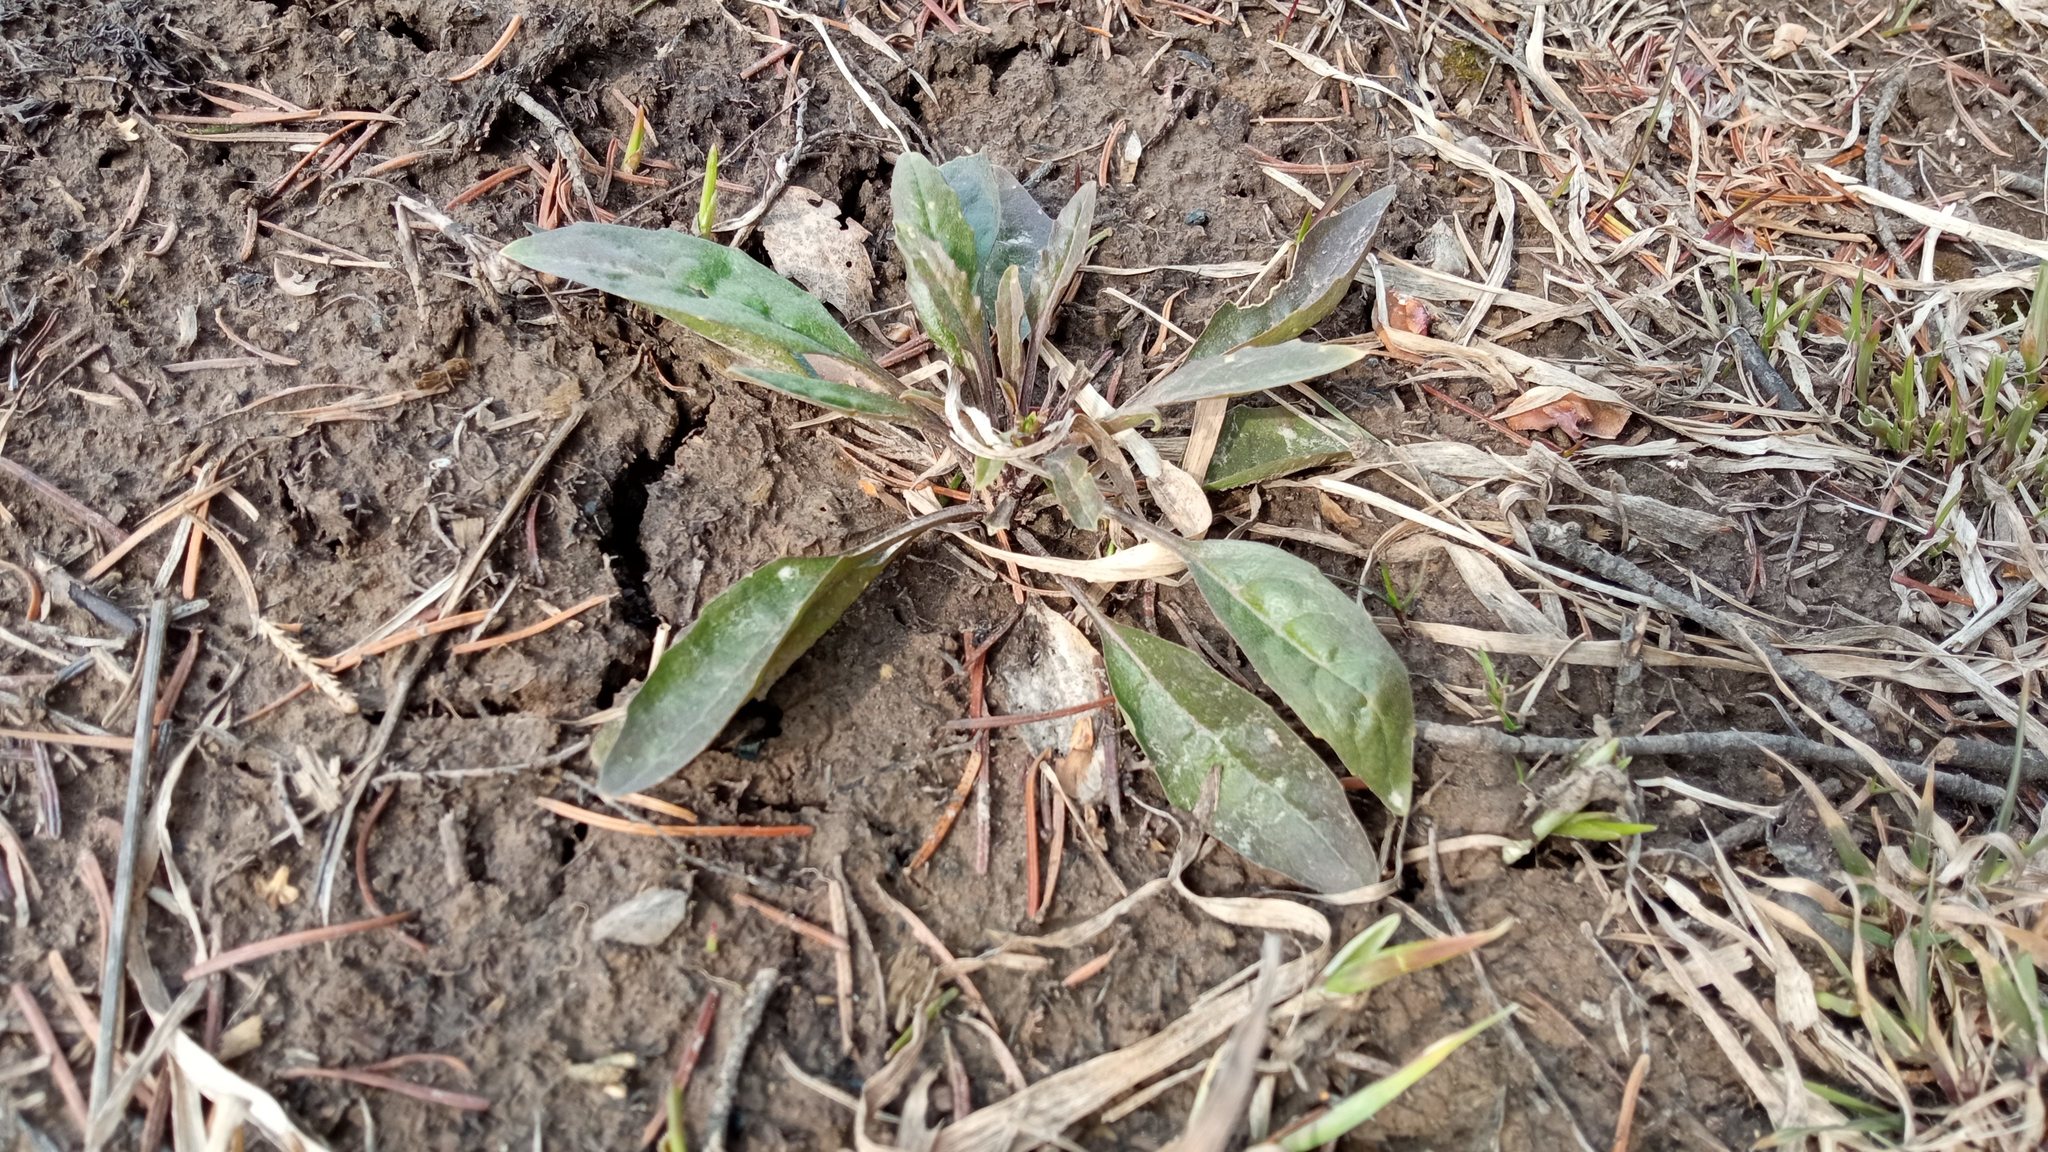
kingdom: Plantae
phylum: Tracheophyta
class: Magnoliopsida
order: Brassicales
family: Brassicaceae
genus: Erysimum
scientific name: Erysimum cheiranthoides
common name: Treacle mustard
